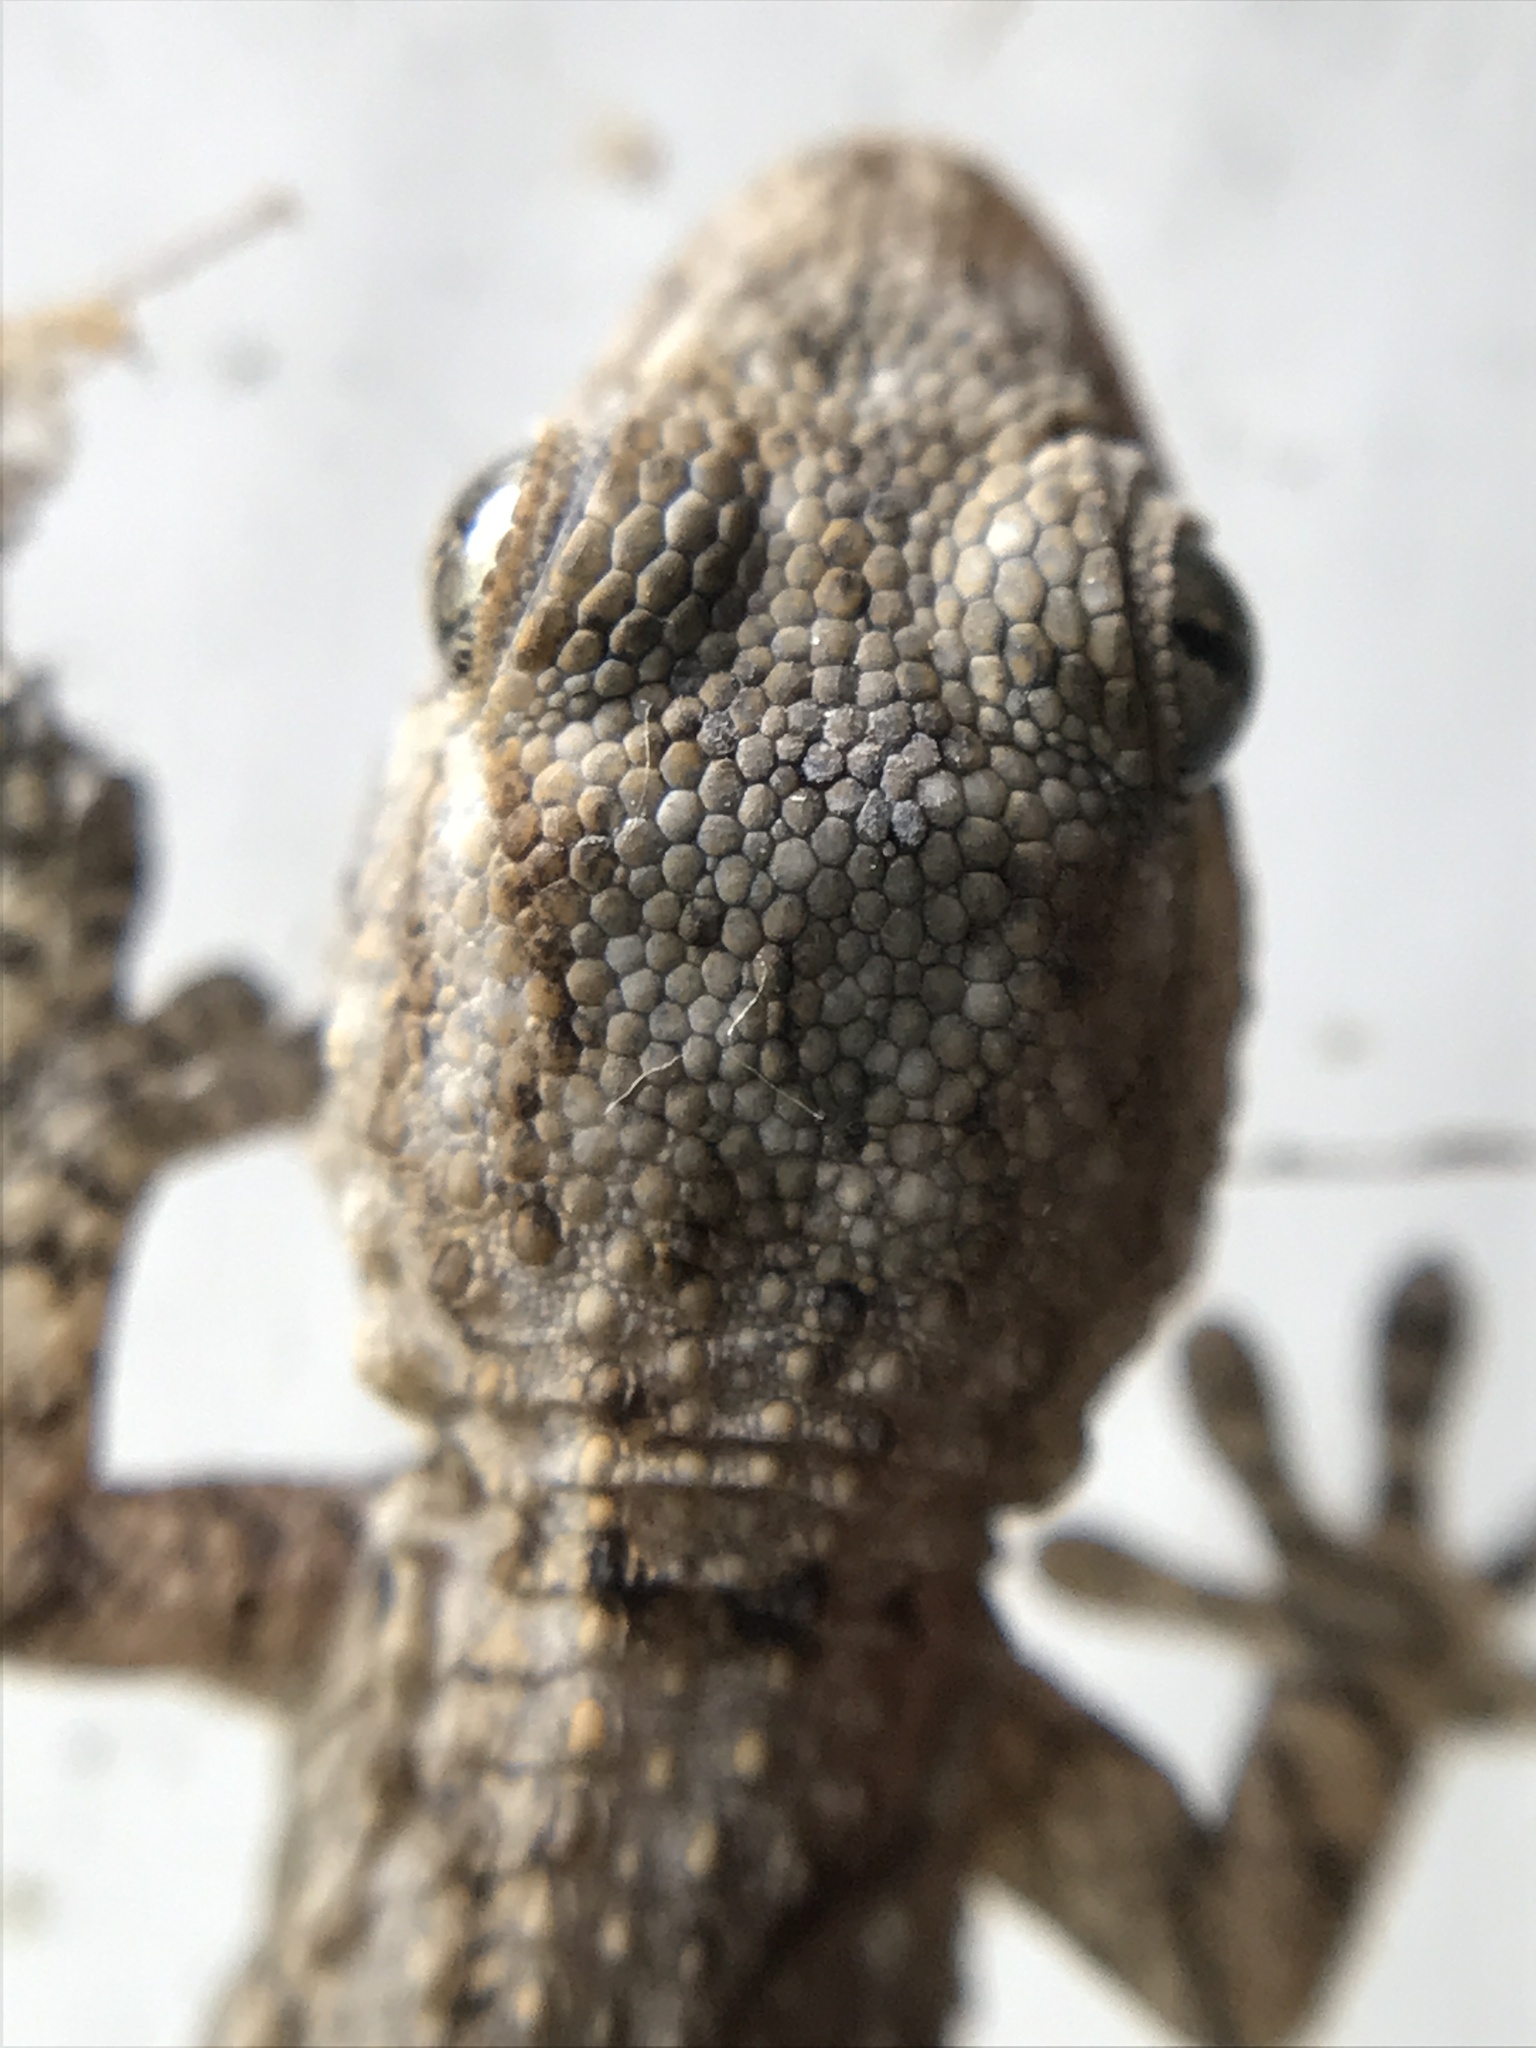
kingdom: Animalia
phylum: Chordata
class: Squamata
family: Phyllodactylidae
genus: Tarentola
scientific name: Tarentola mauritanica
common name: Moorish gecko
